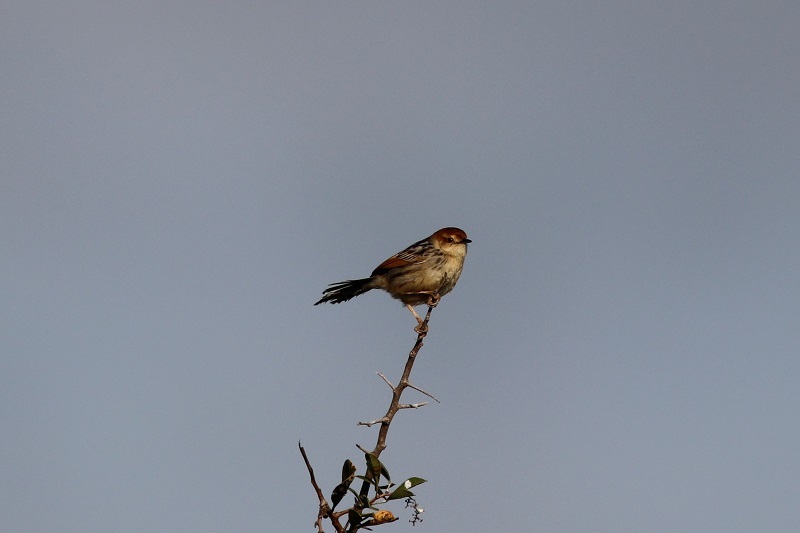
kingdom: Animalia
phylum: Chordata
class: Aves
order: Passeriformes
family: Cisticolidae
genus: Cisticola
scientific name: Cisticola tinniens
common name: Levaillant's cisticola
